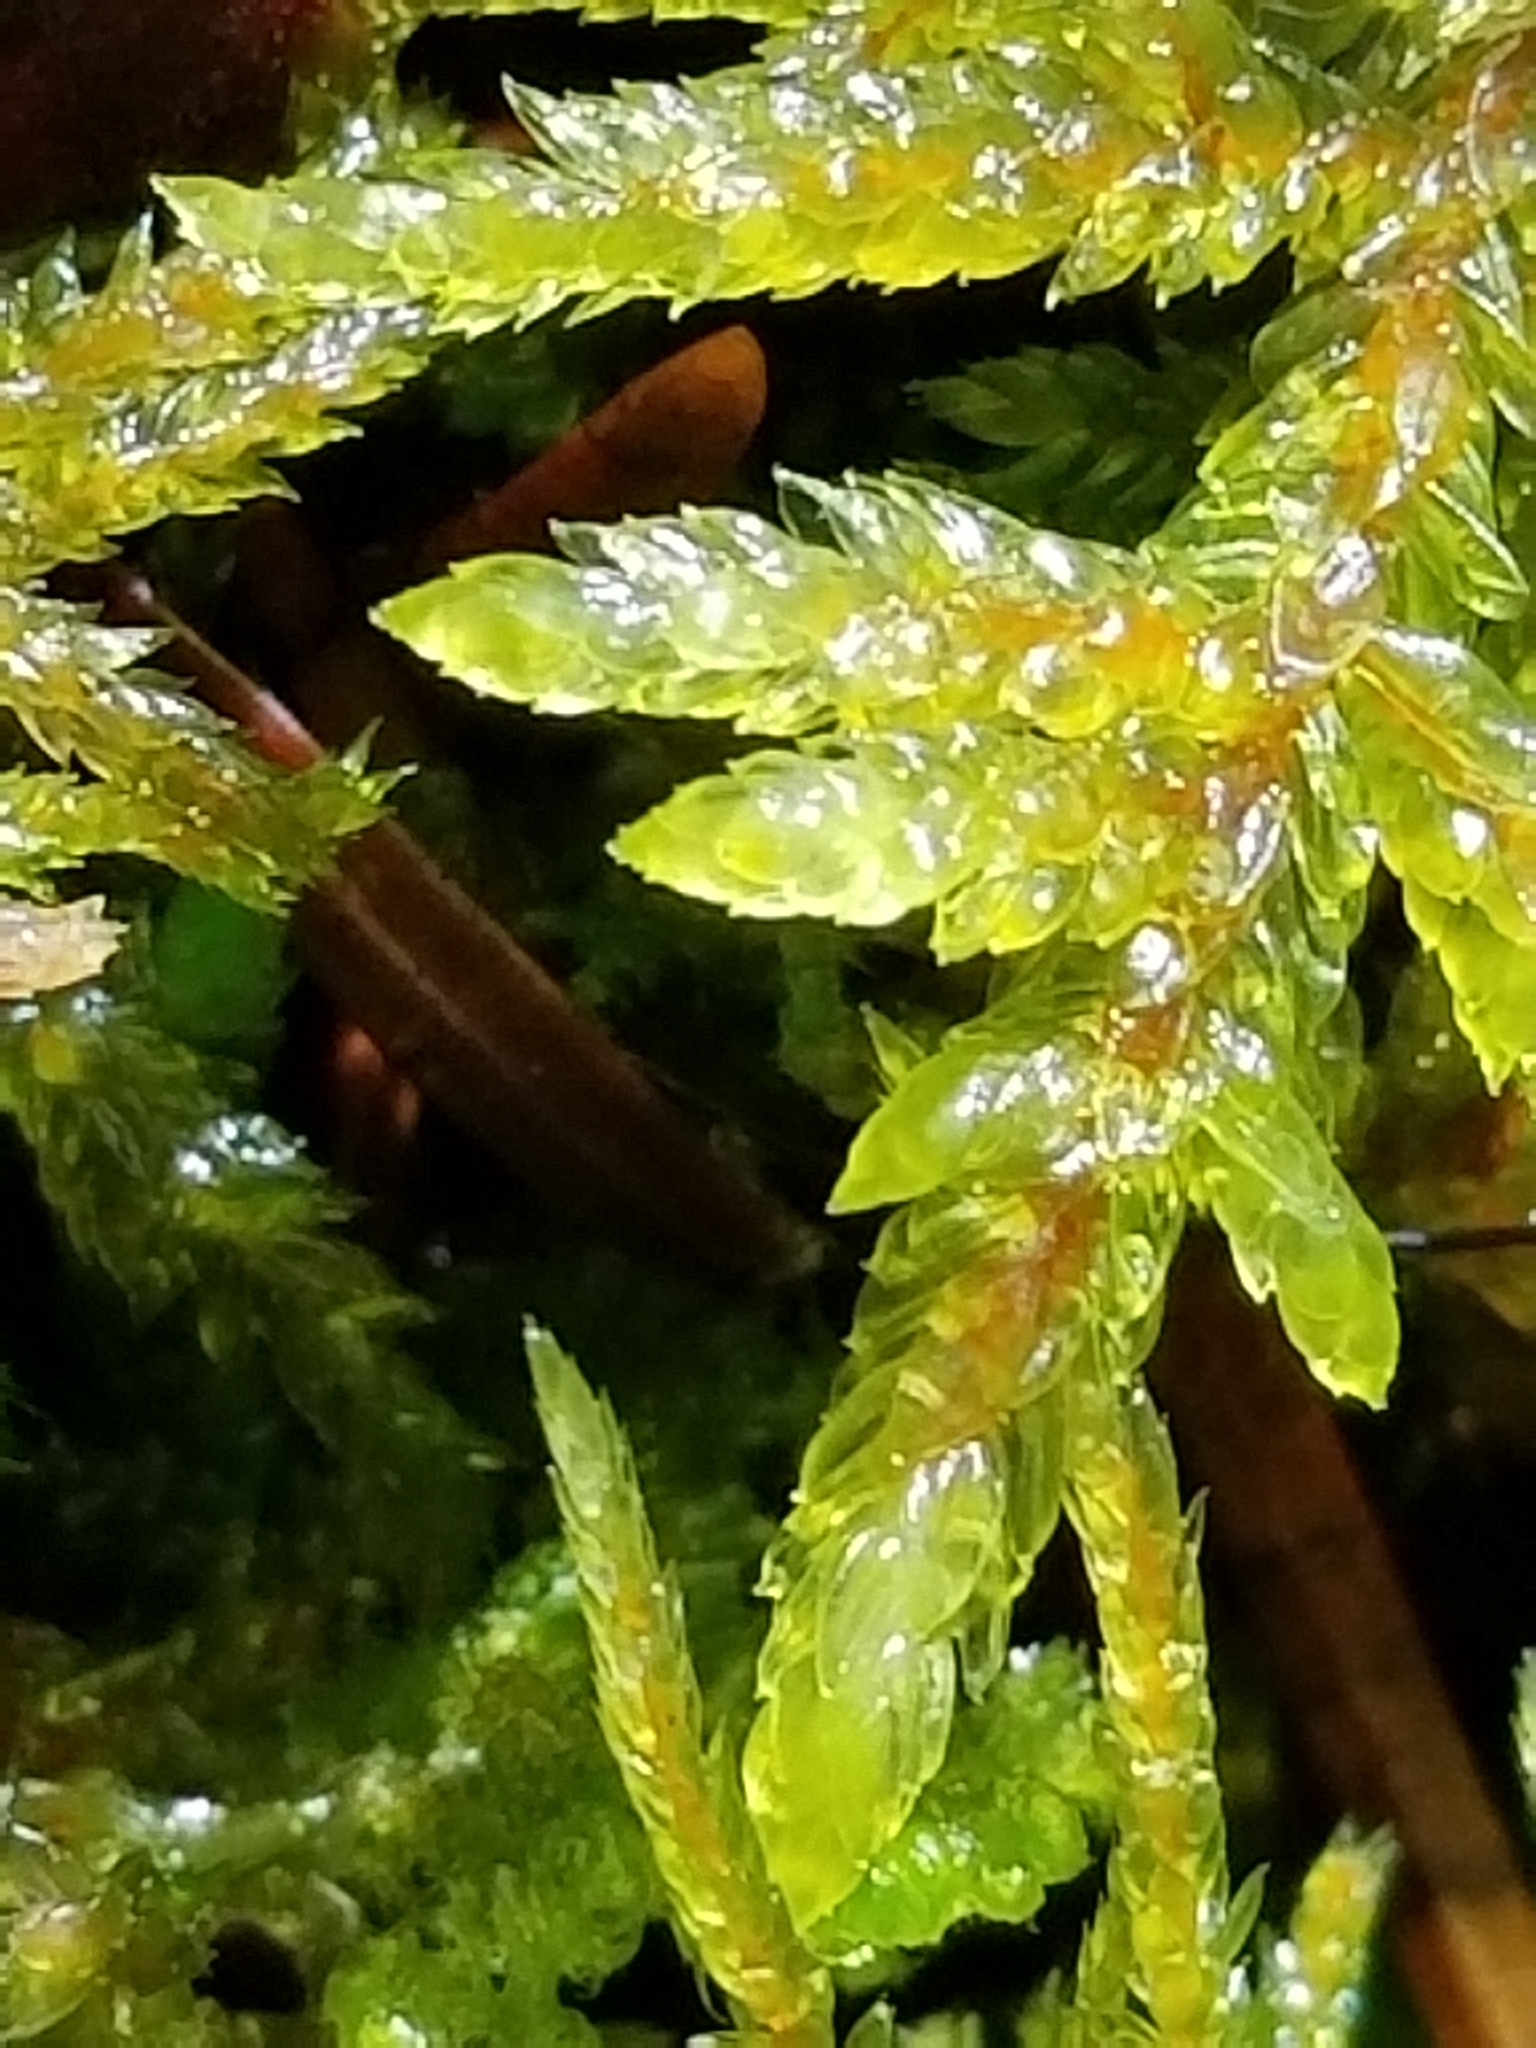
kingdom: Plantae
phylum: Bryophyta
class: Bryopsida
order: Hypnales
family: Hylocomiaceae
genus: Pleurozium
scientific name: Pleurozium schreberi
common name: Red-stemmed feather moss
